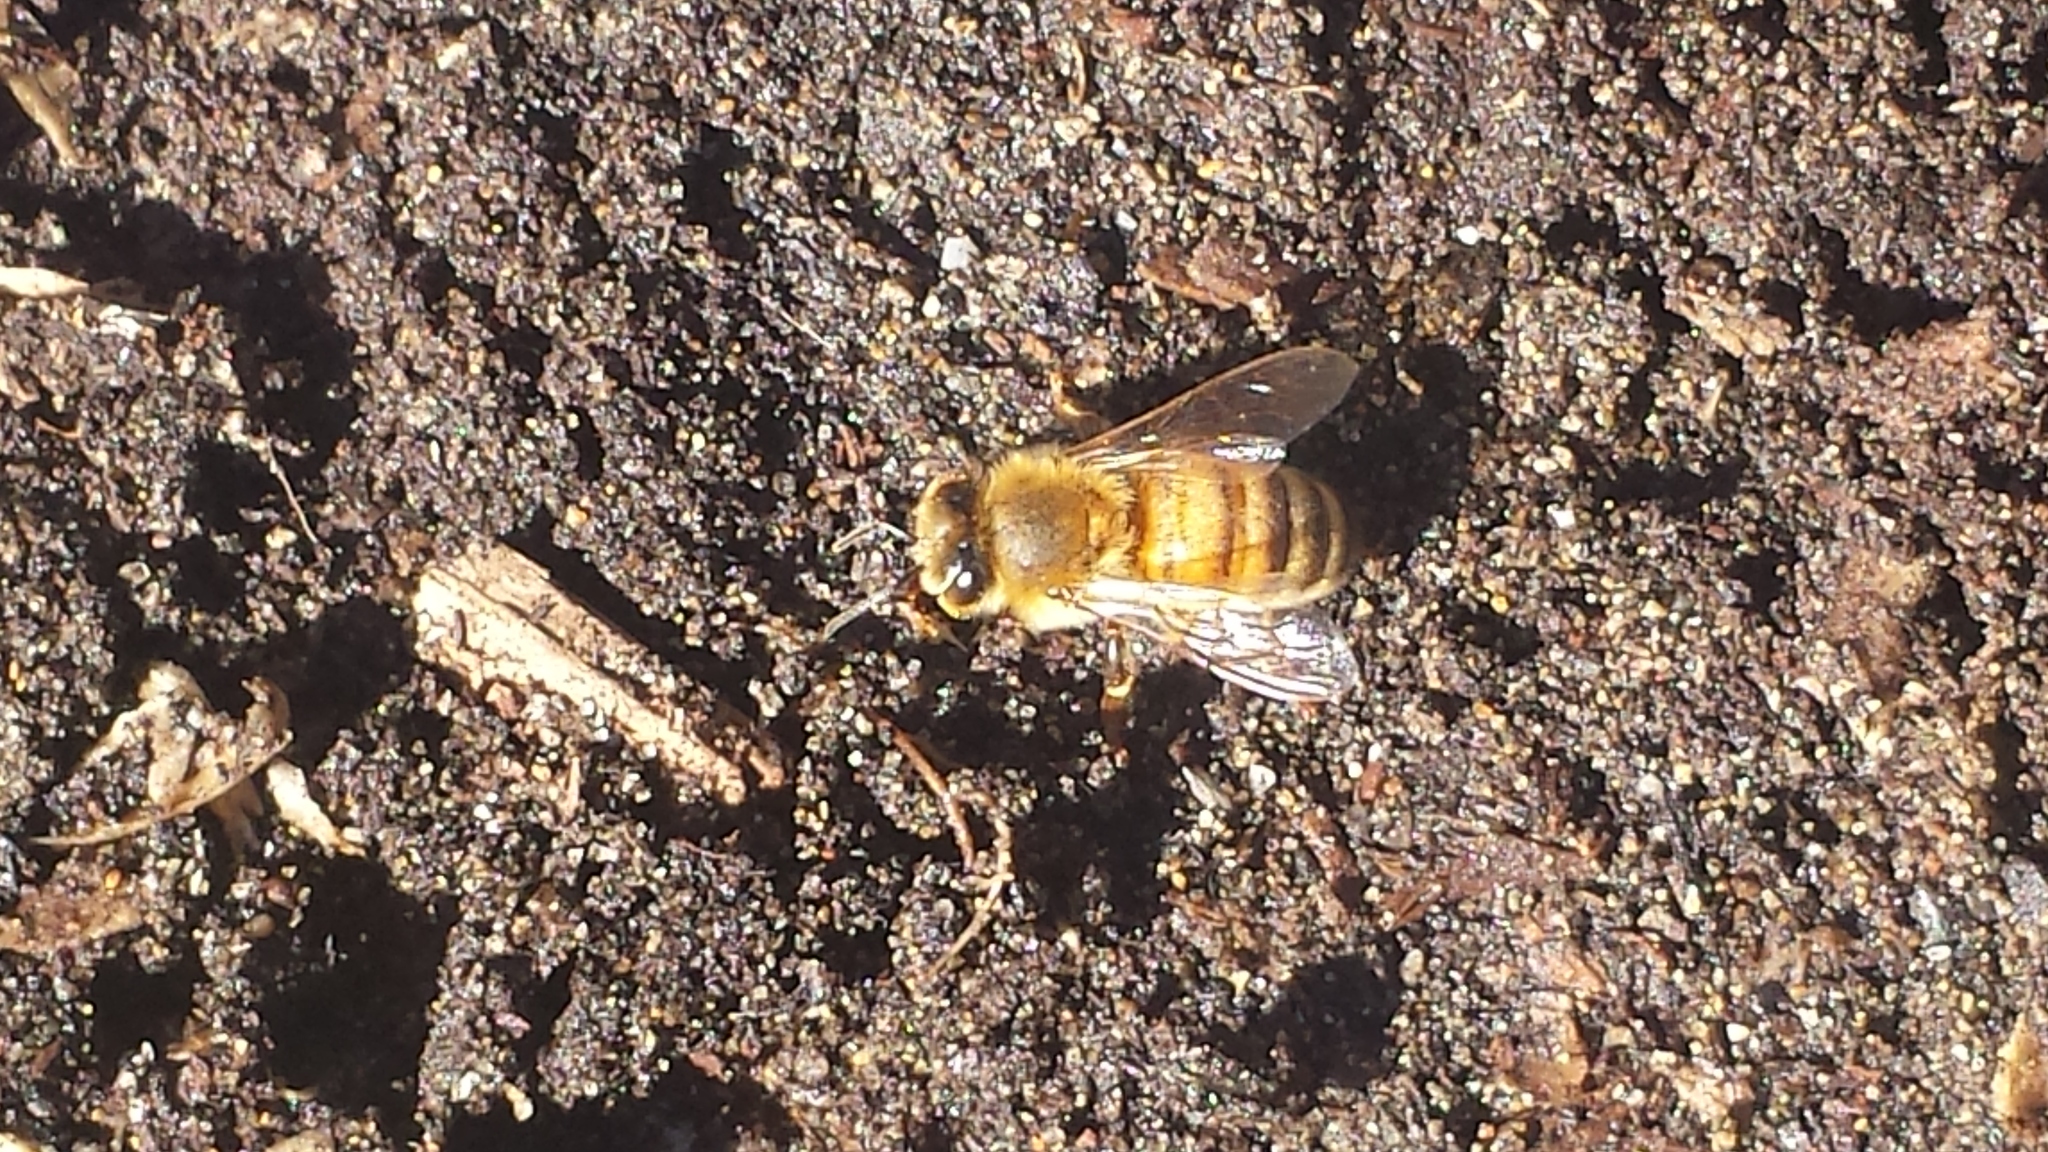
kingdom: Animalia
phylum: Arthropoda
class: Insecta
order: Hymenoptera
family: Apidae
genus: Apis
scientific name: Apis mellifera
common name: Honey bee
